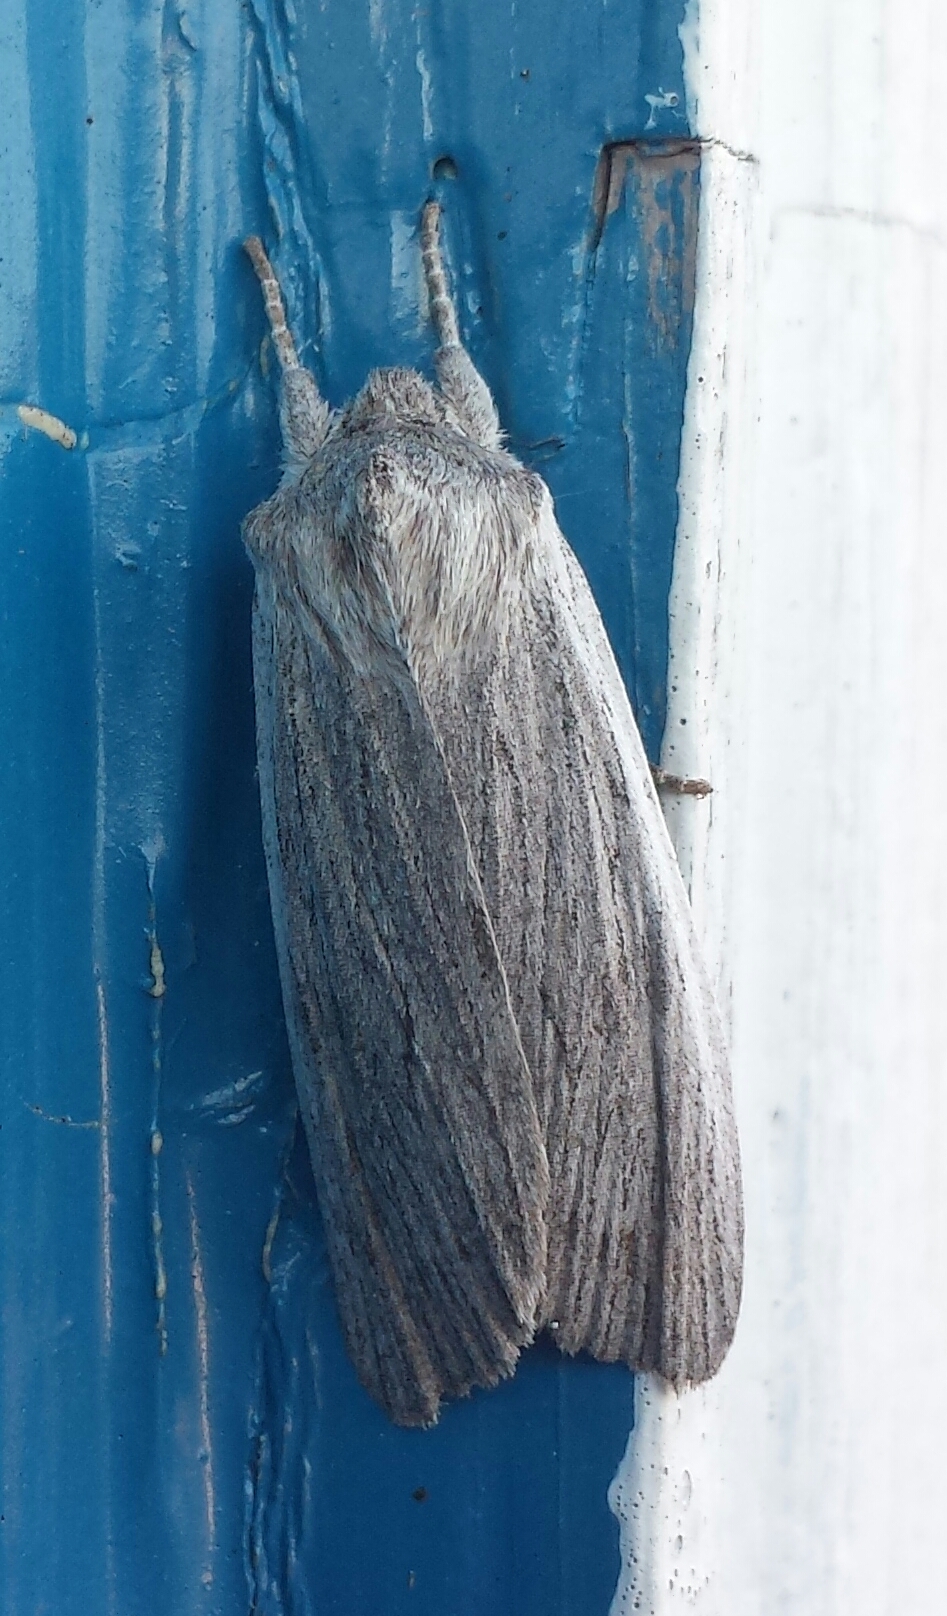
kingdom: Animalia
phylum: Arthropoda
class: Insecta
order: Lepidoptera
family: Noctuidae
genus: Lithophane
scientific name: Lithophane fagina
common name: Hoary pinion moth
